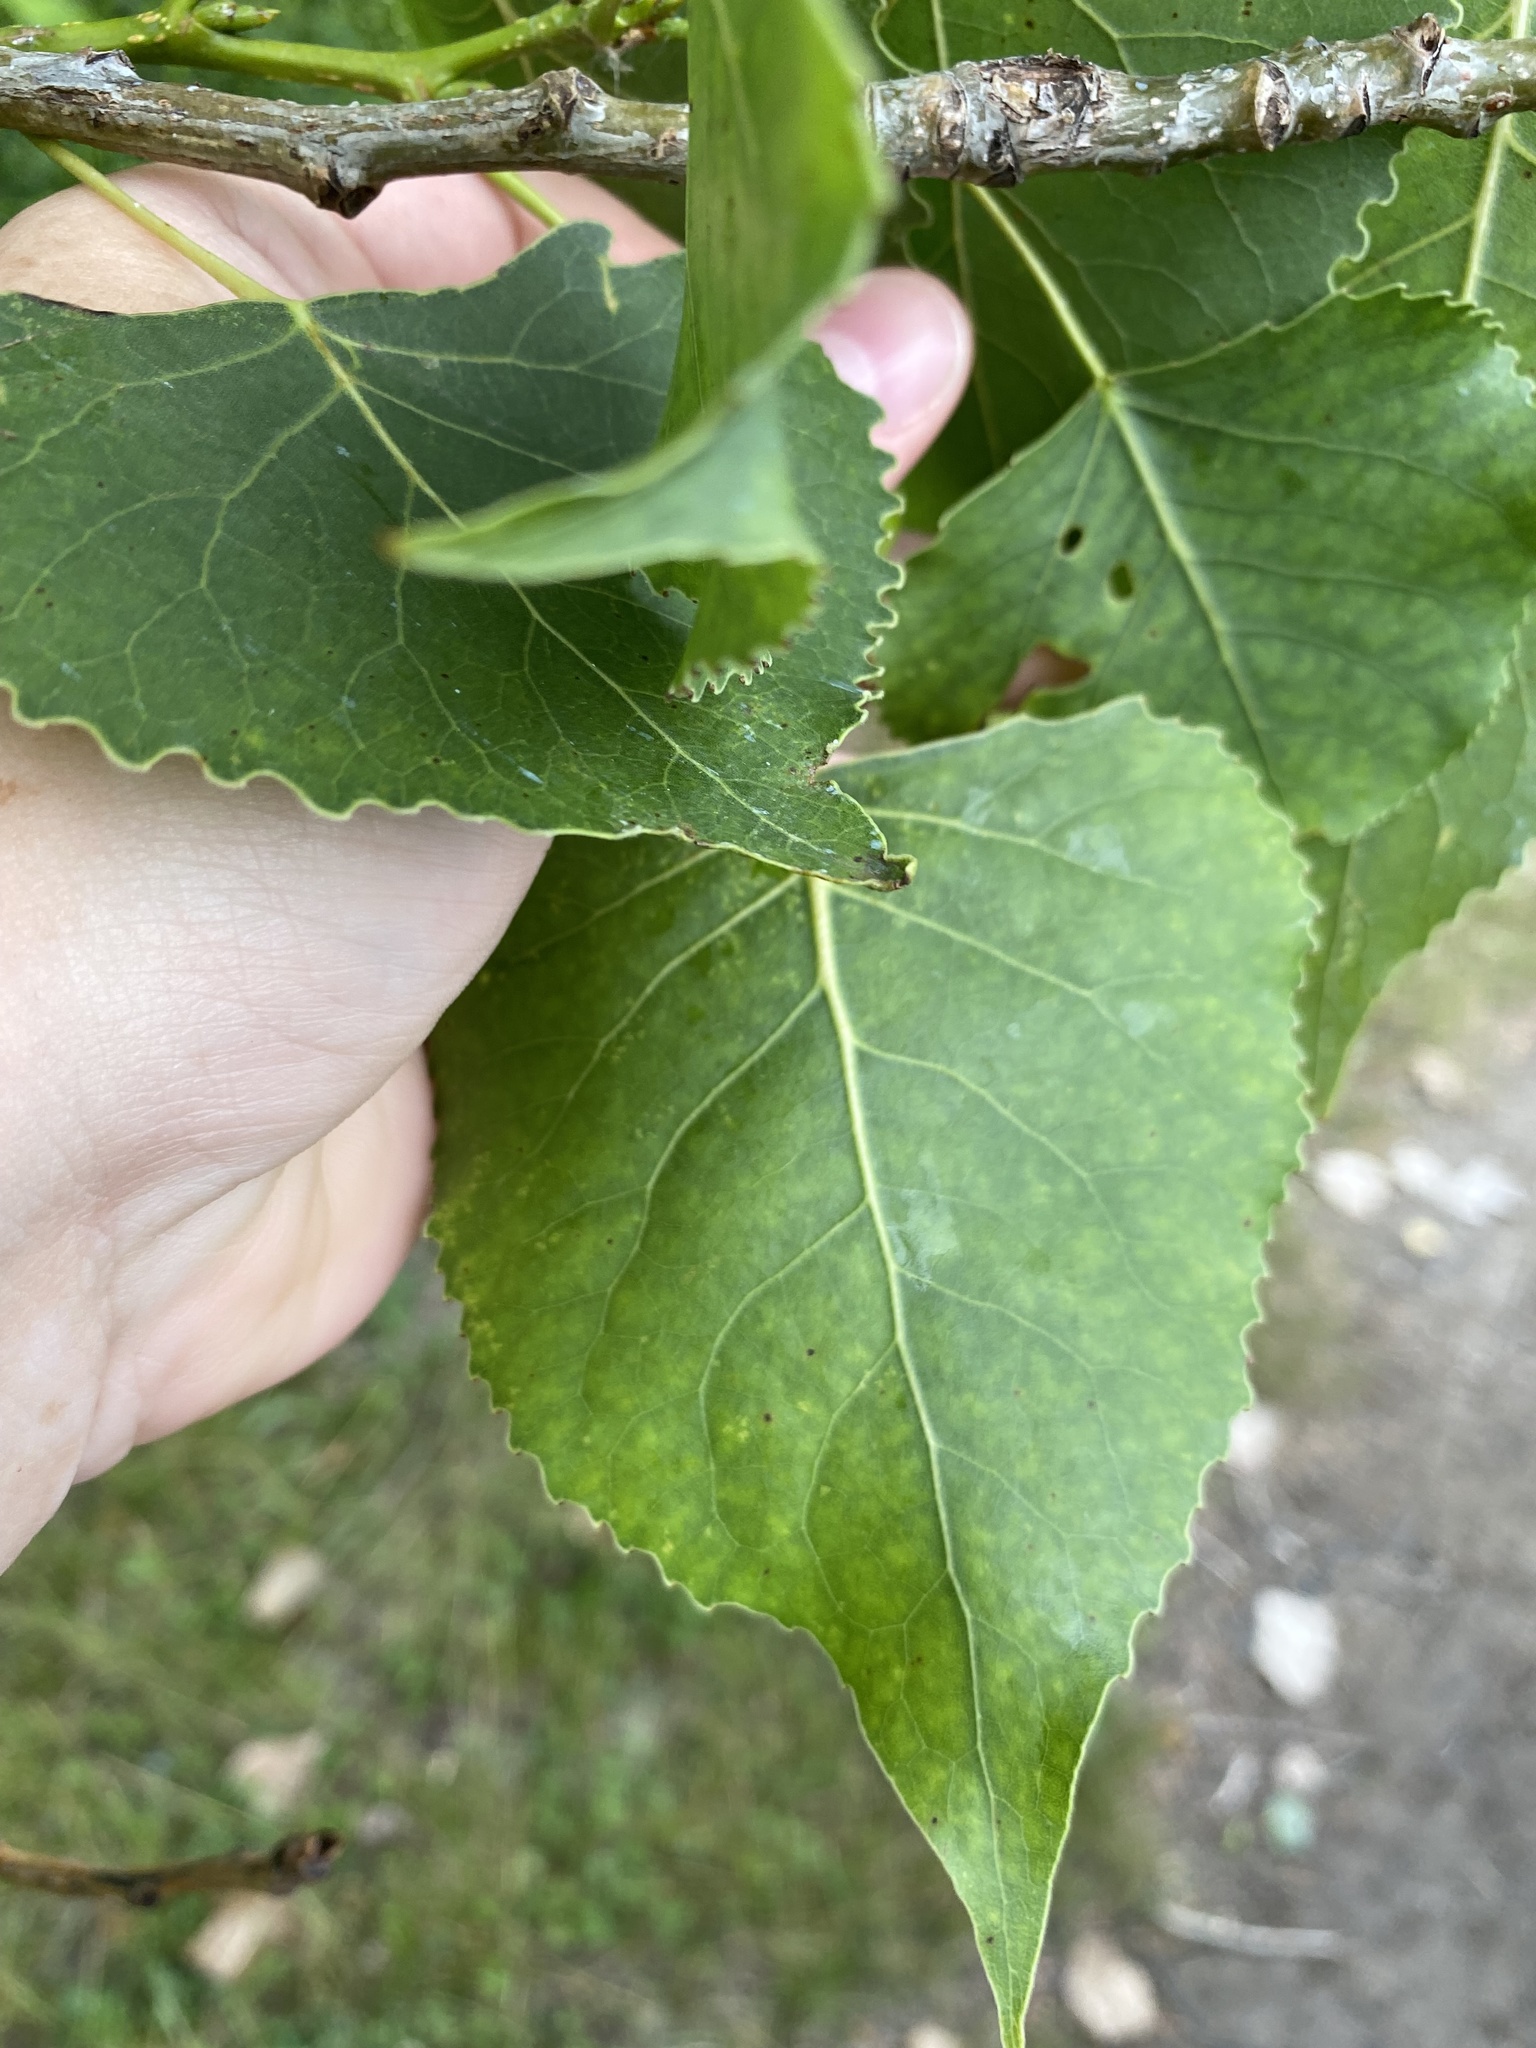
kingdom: Animalia
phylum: Arthropoda
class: Insecta
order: Hemiptera
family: Aphididae
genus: Pemphigus
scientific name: Pemphigus populicaulis
